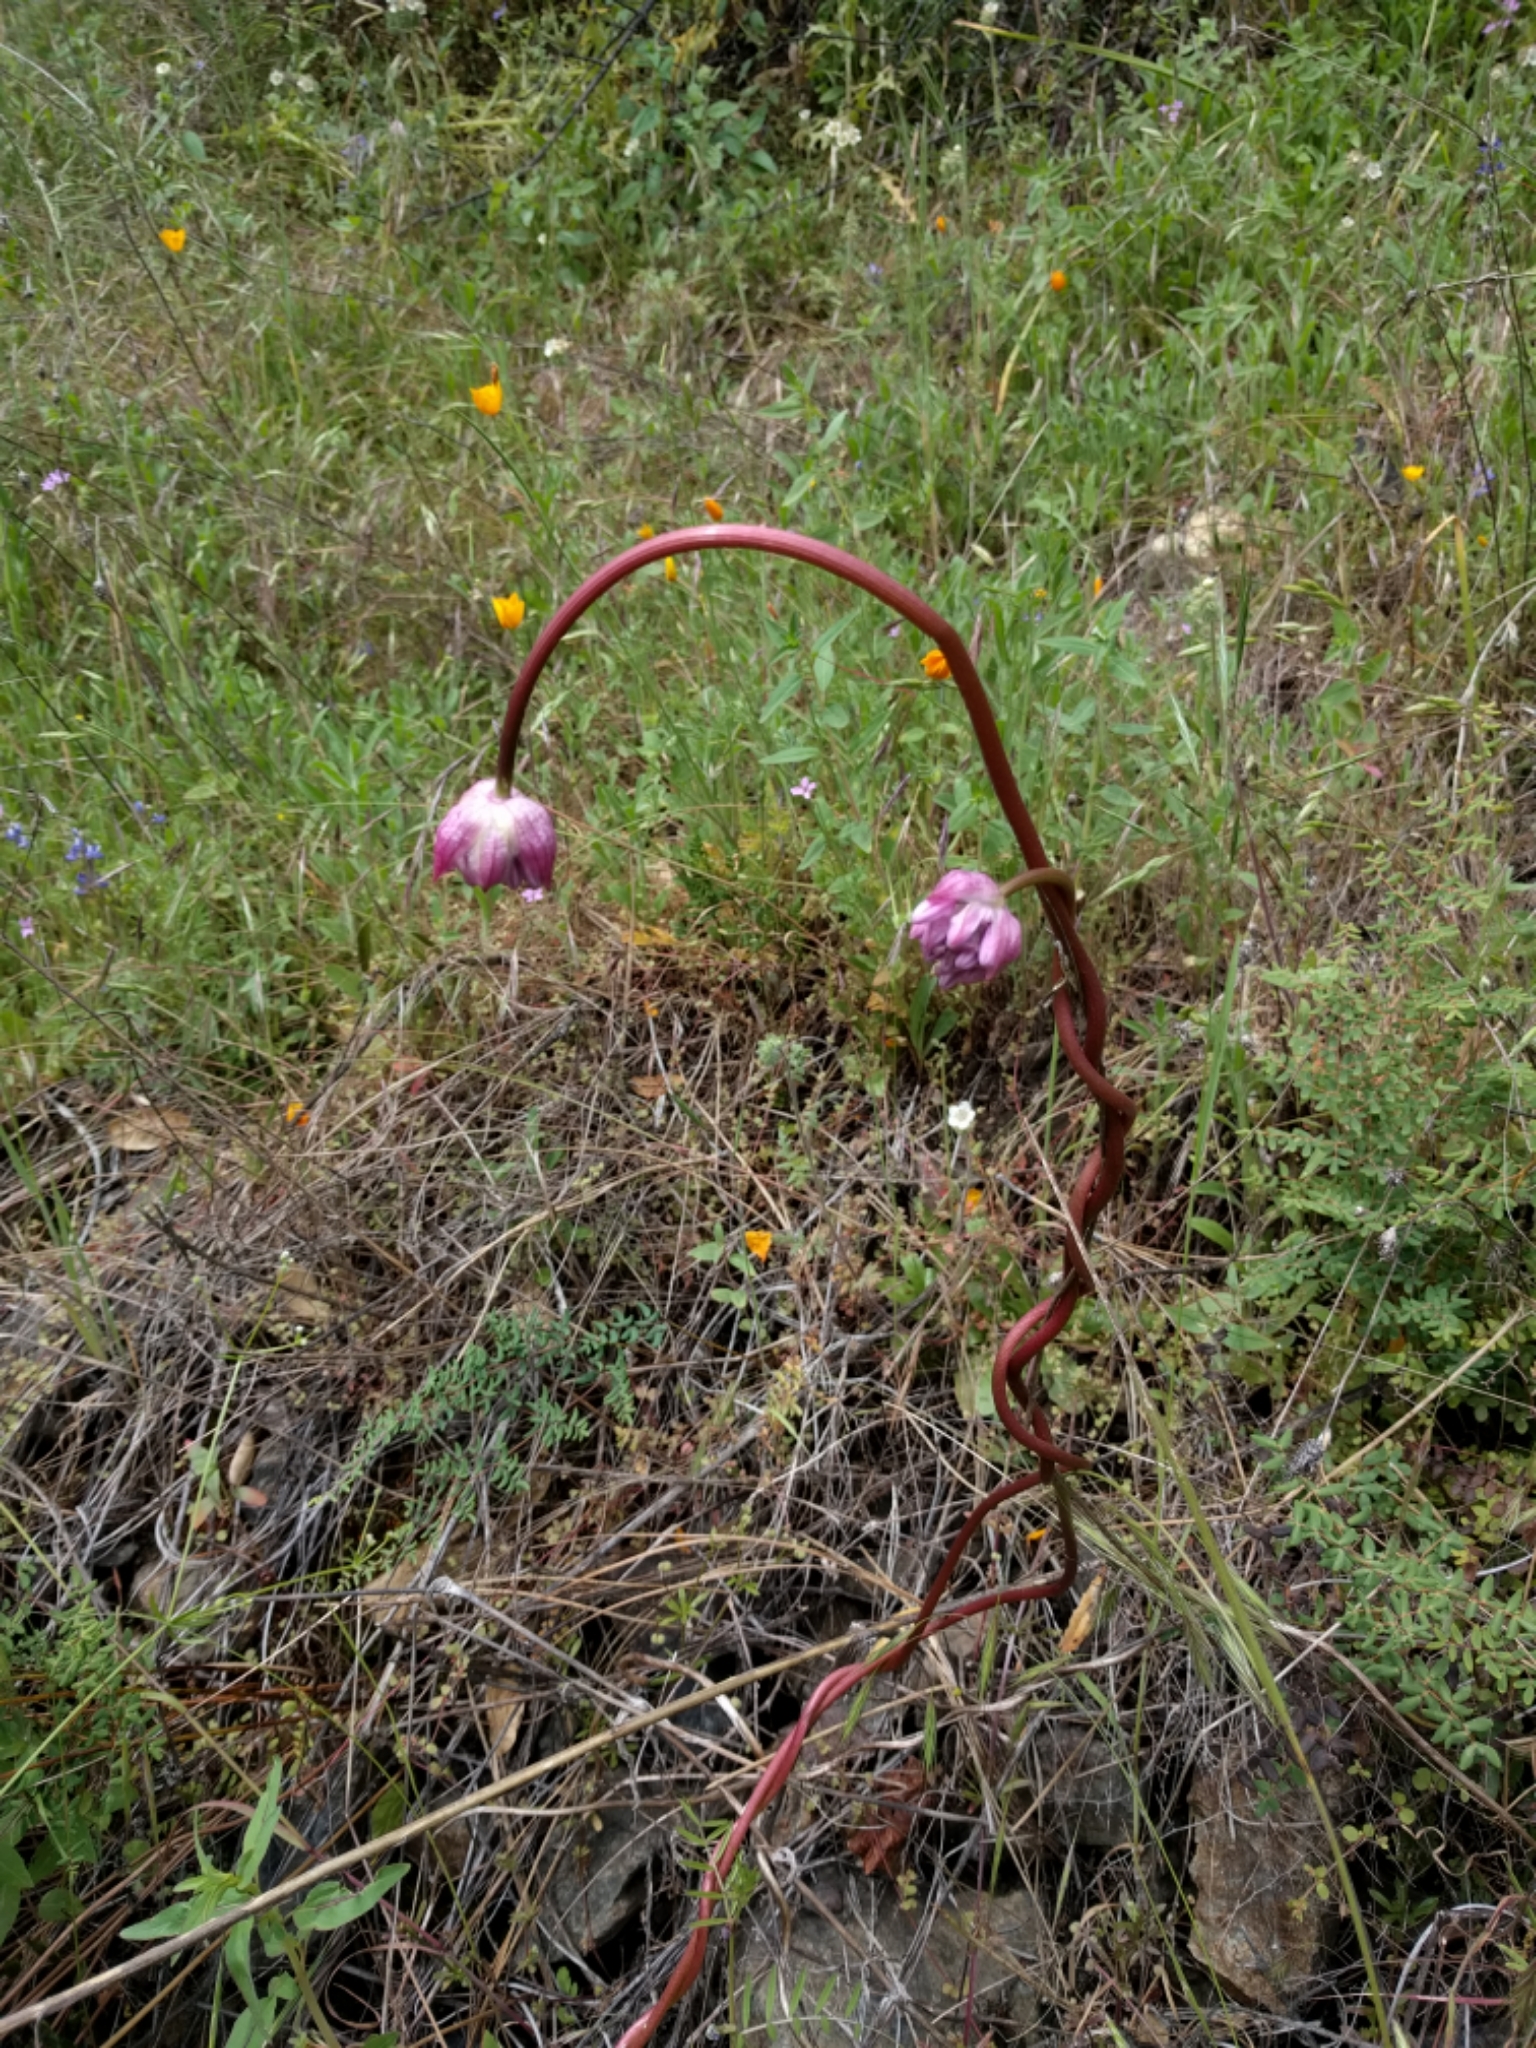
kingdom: Plantae
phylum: Tracheophyta
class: Liliopsida
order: Asparagales
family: Asparagaceae
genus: Dichelostemma
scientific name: Dichelostemma volubile
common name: Trining brodiaea
